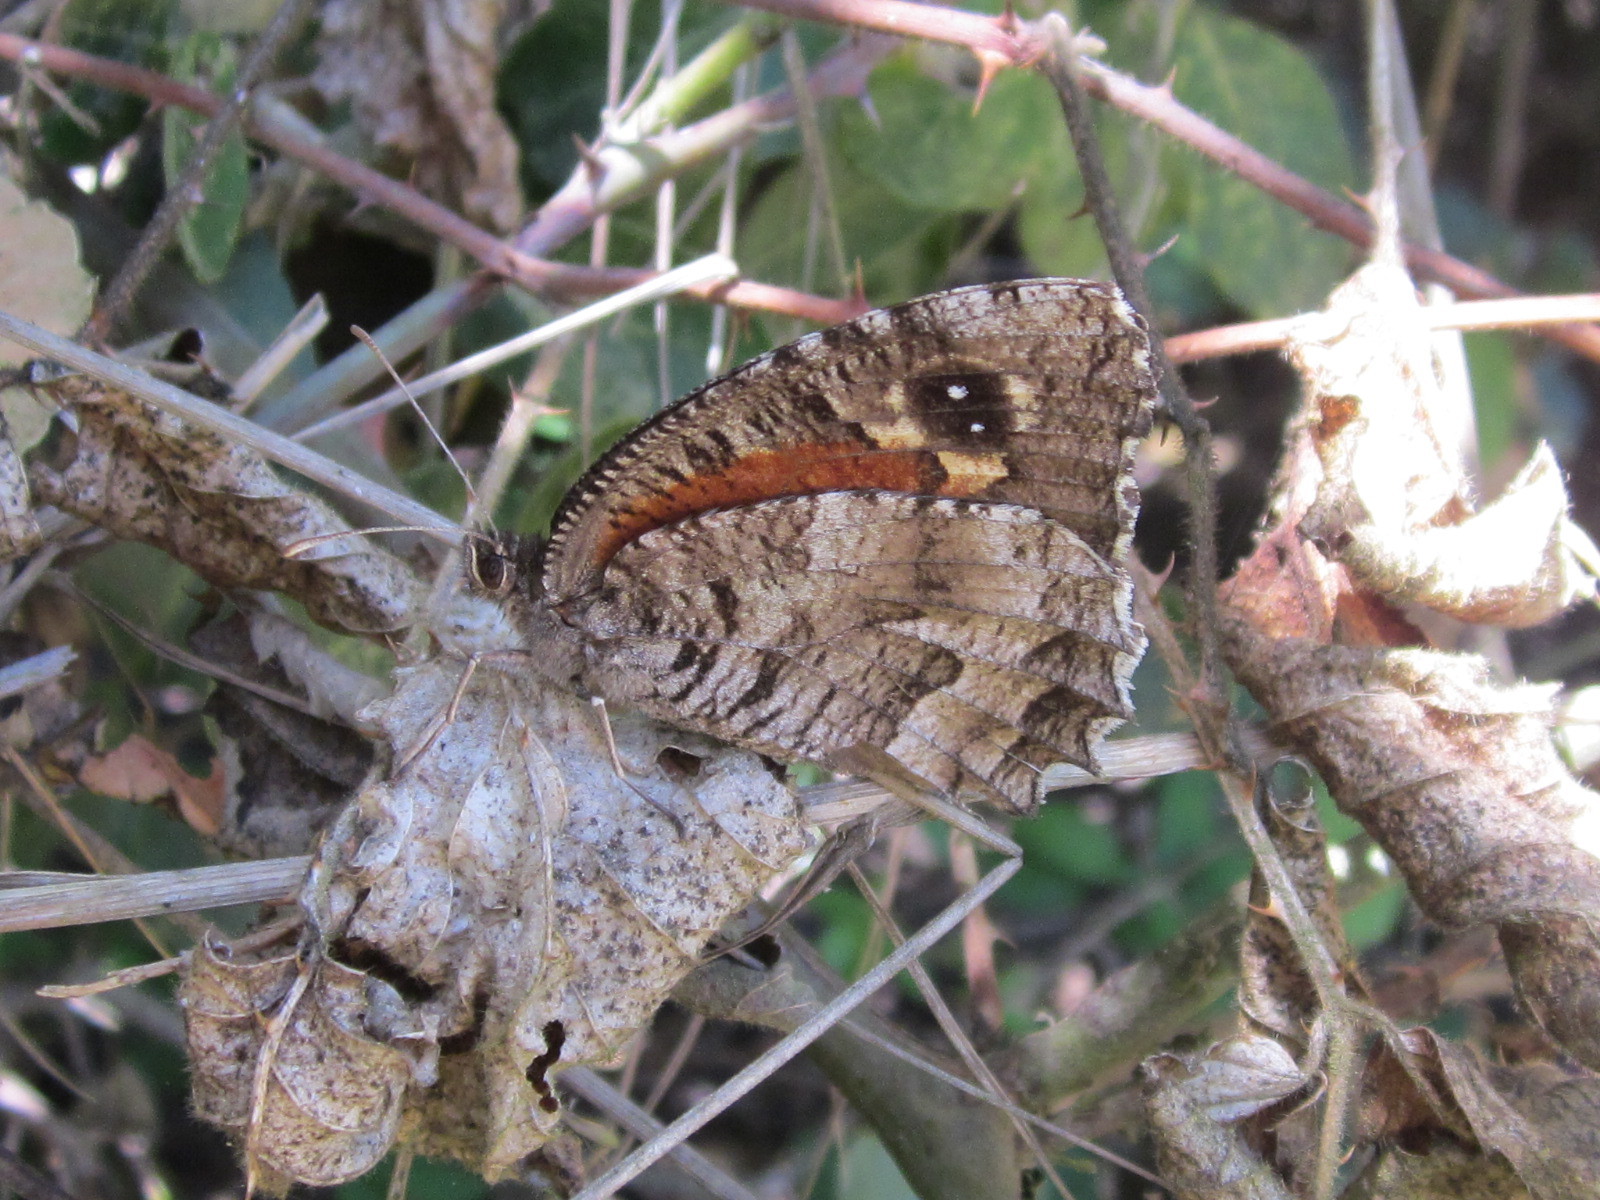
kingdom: Animalia
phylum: Arthropoda
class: Insecta
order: Lepidoptera
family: Nymphalidae
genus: Elina
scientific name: Elina montroli
